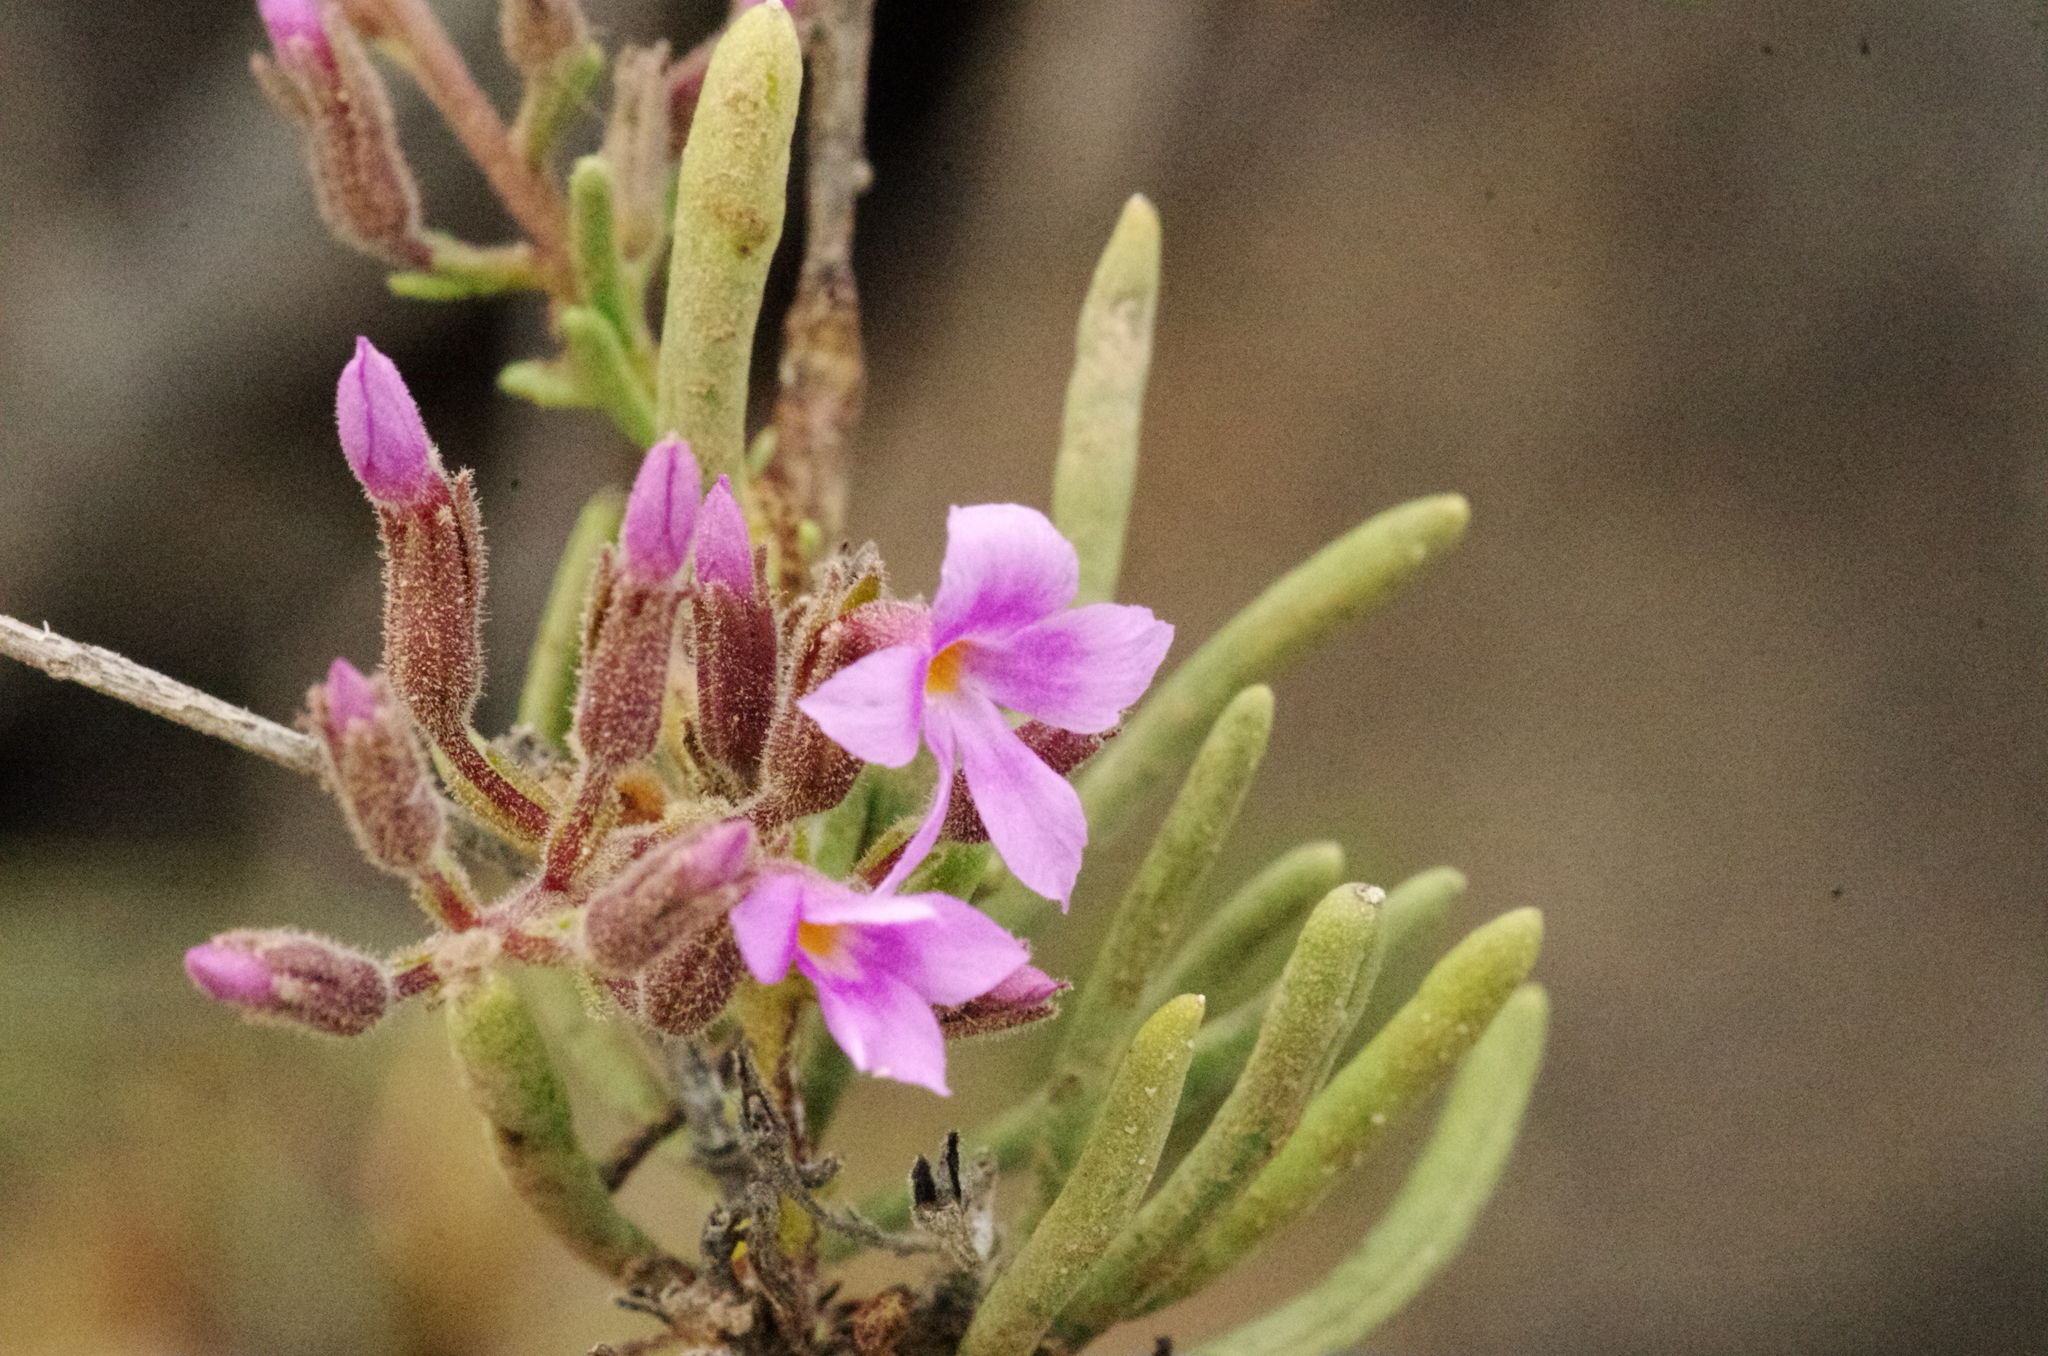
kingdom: Plantae
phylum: Tracheophyta
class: Magnoliopsida
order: Lamiales
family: Plantaginaceae
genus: Campylanthus
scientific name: Campylanthus salsoloides
